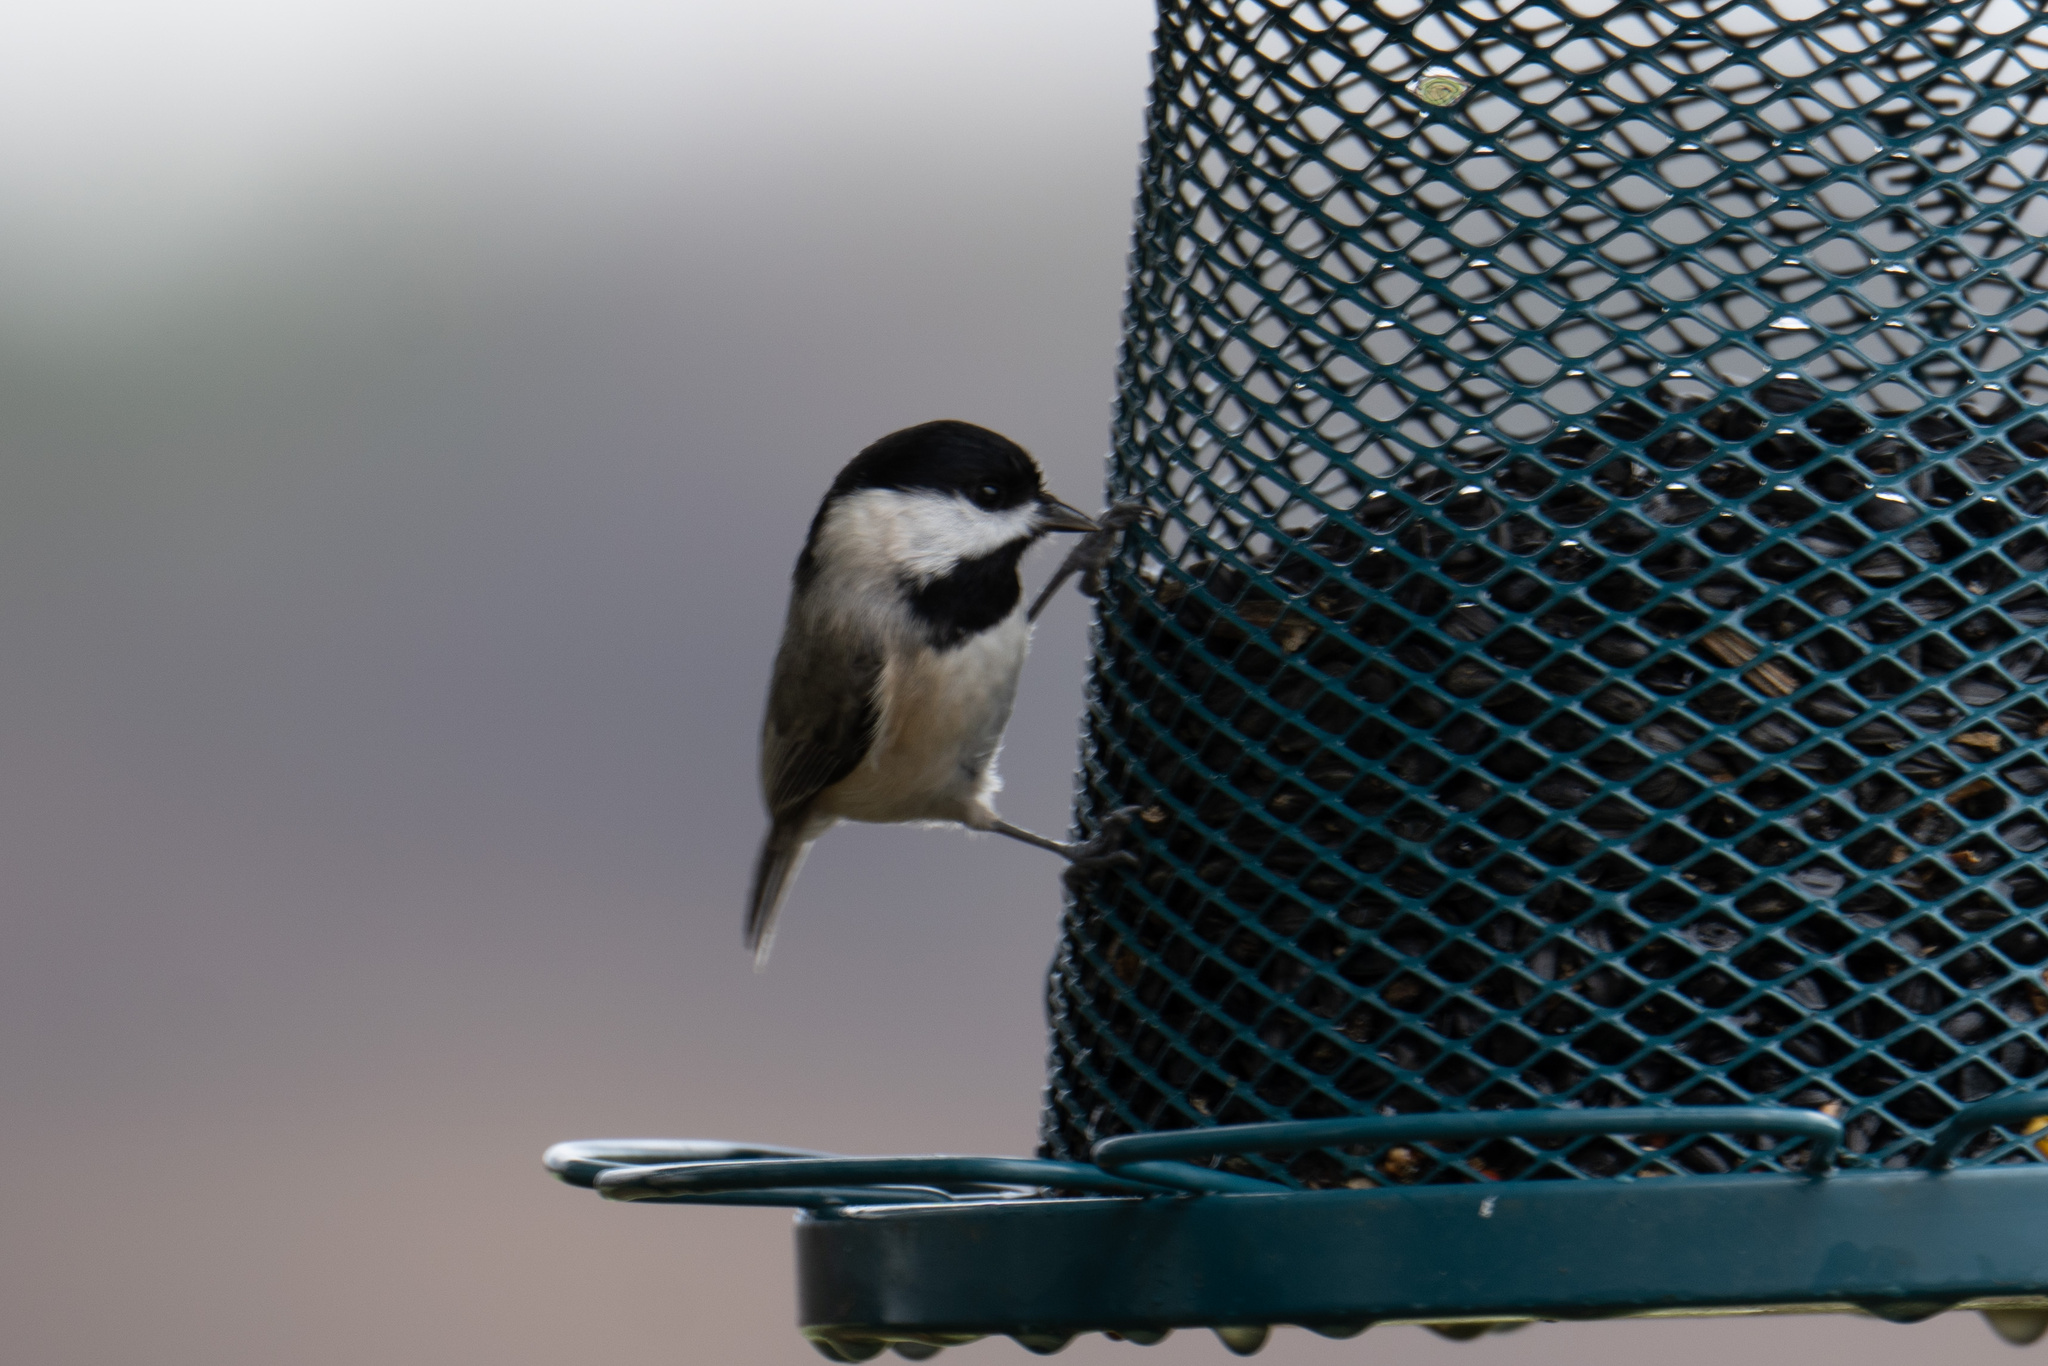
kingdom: Animalia
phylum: Chordata
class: Aves
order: Passeriformes
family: Paridae
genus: Poecile
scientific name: Poecile carolinensis
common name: Carolina chickadee
